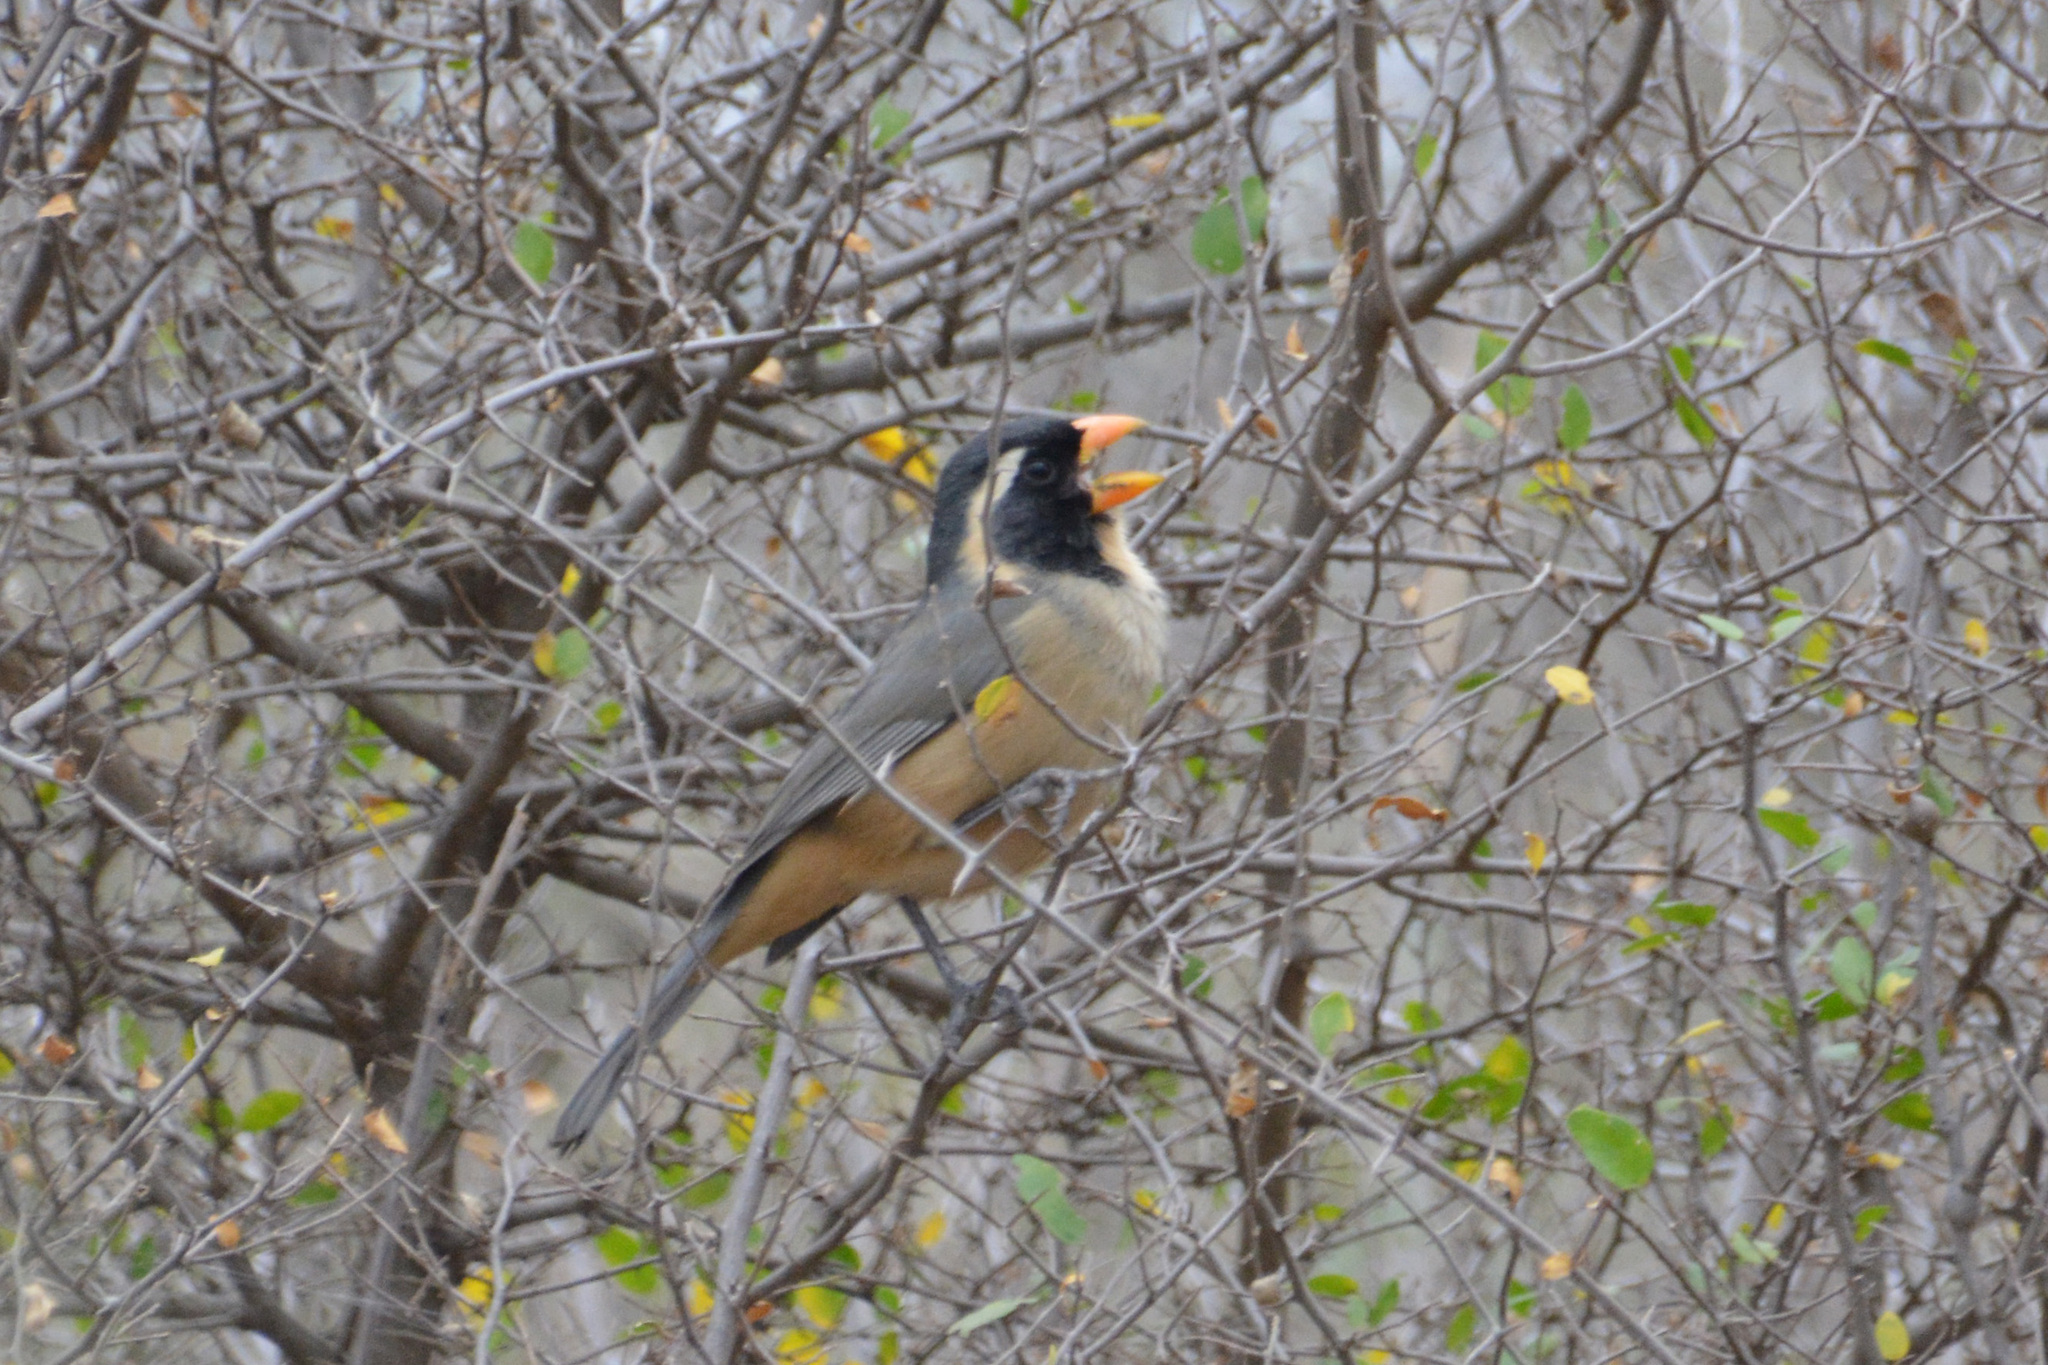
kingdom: Animalia
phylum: Chordata
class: Aves
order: Passeriformes
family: Thraupidae
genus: Saltator
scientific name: Saltator aurantiirostris
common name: Golden-billed saltator
